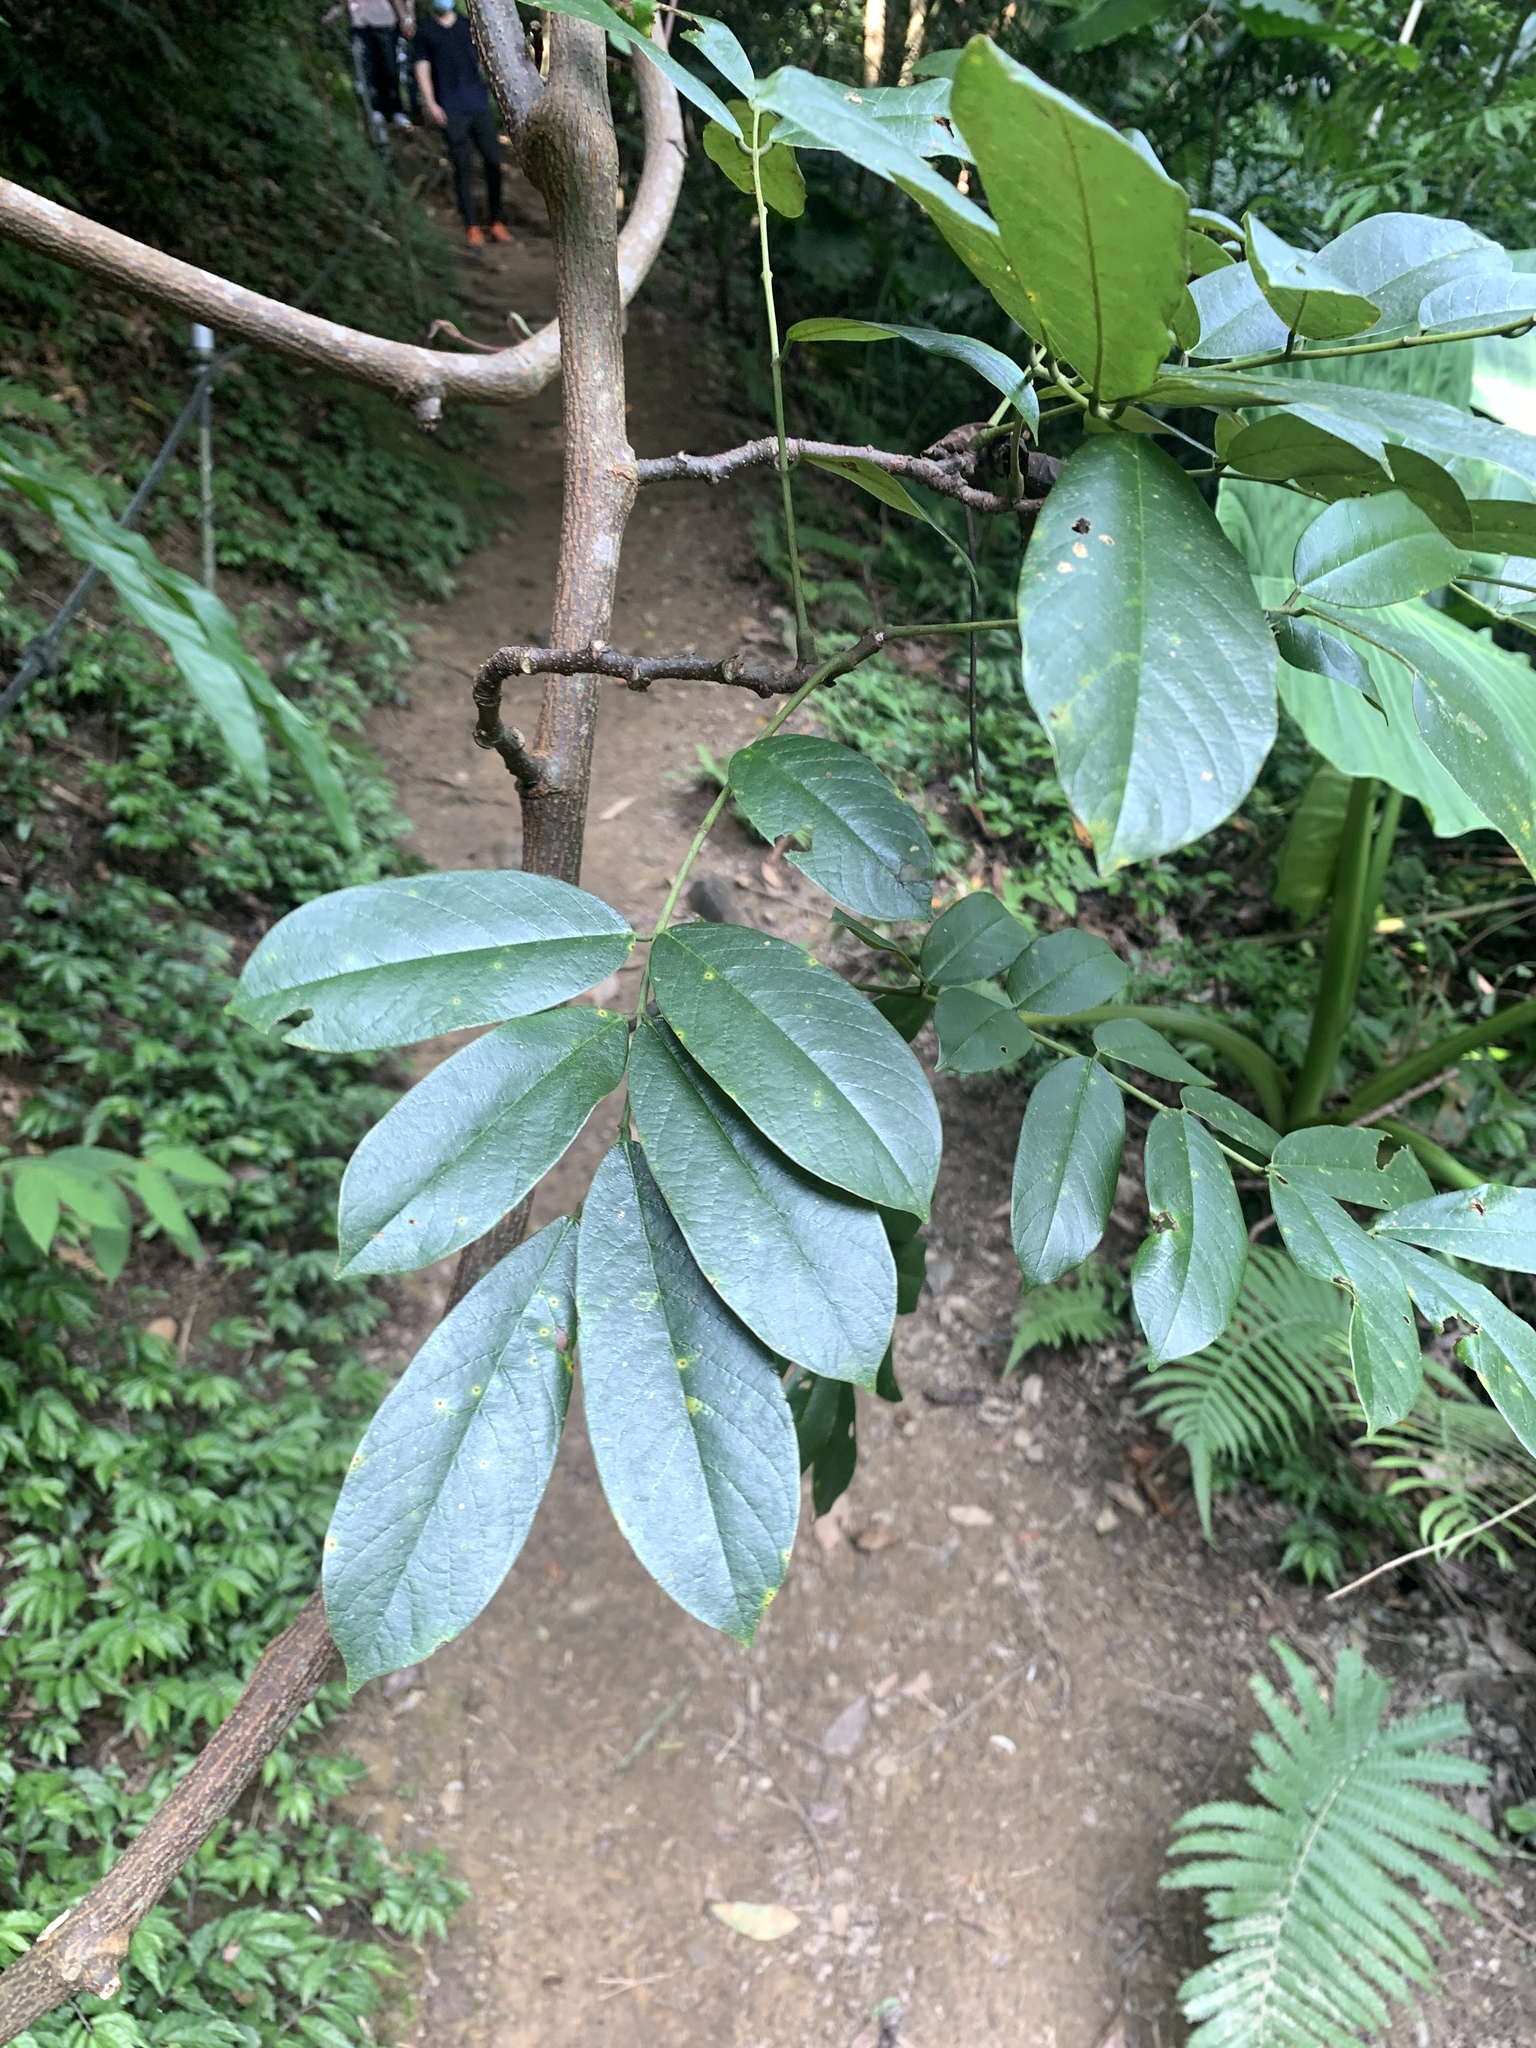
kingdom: Plantae
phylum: Tracheophyta
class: Magnoliopsida
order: Fabales
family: Fabaceae
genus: Millettia
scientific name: Millettia pachycarpa
